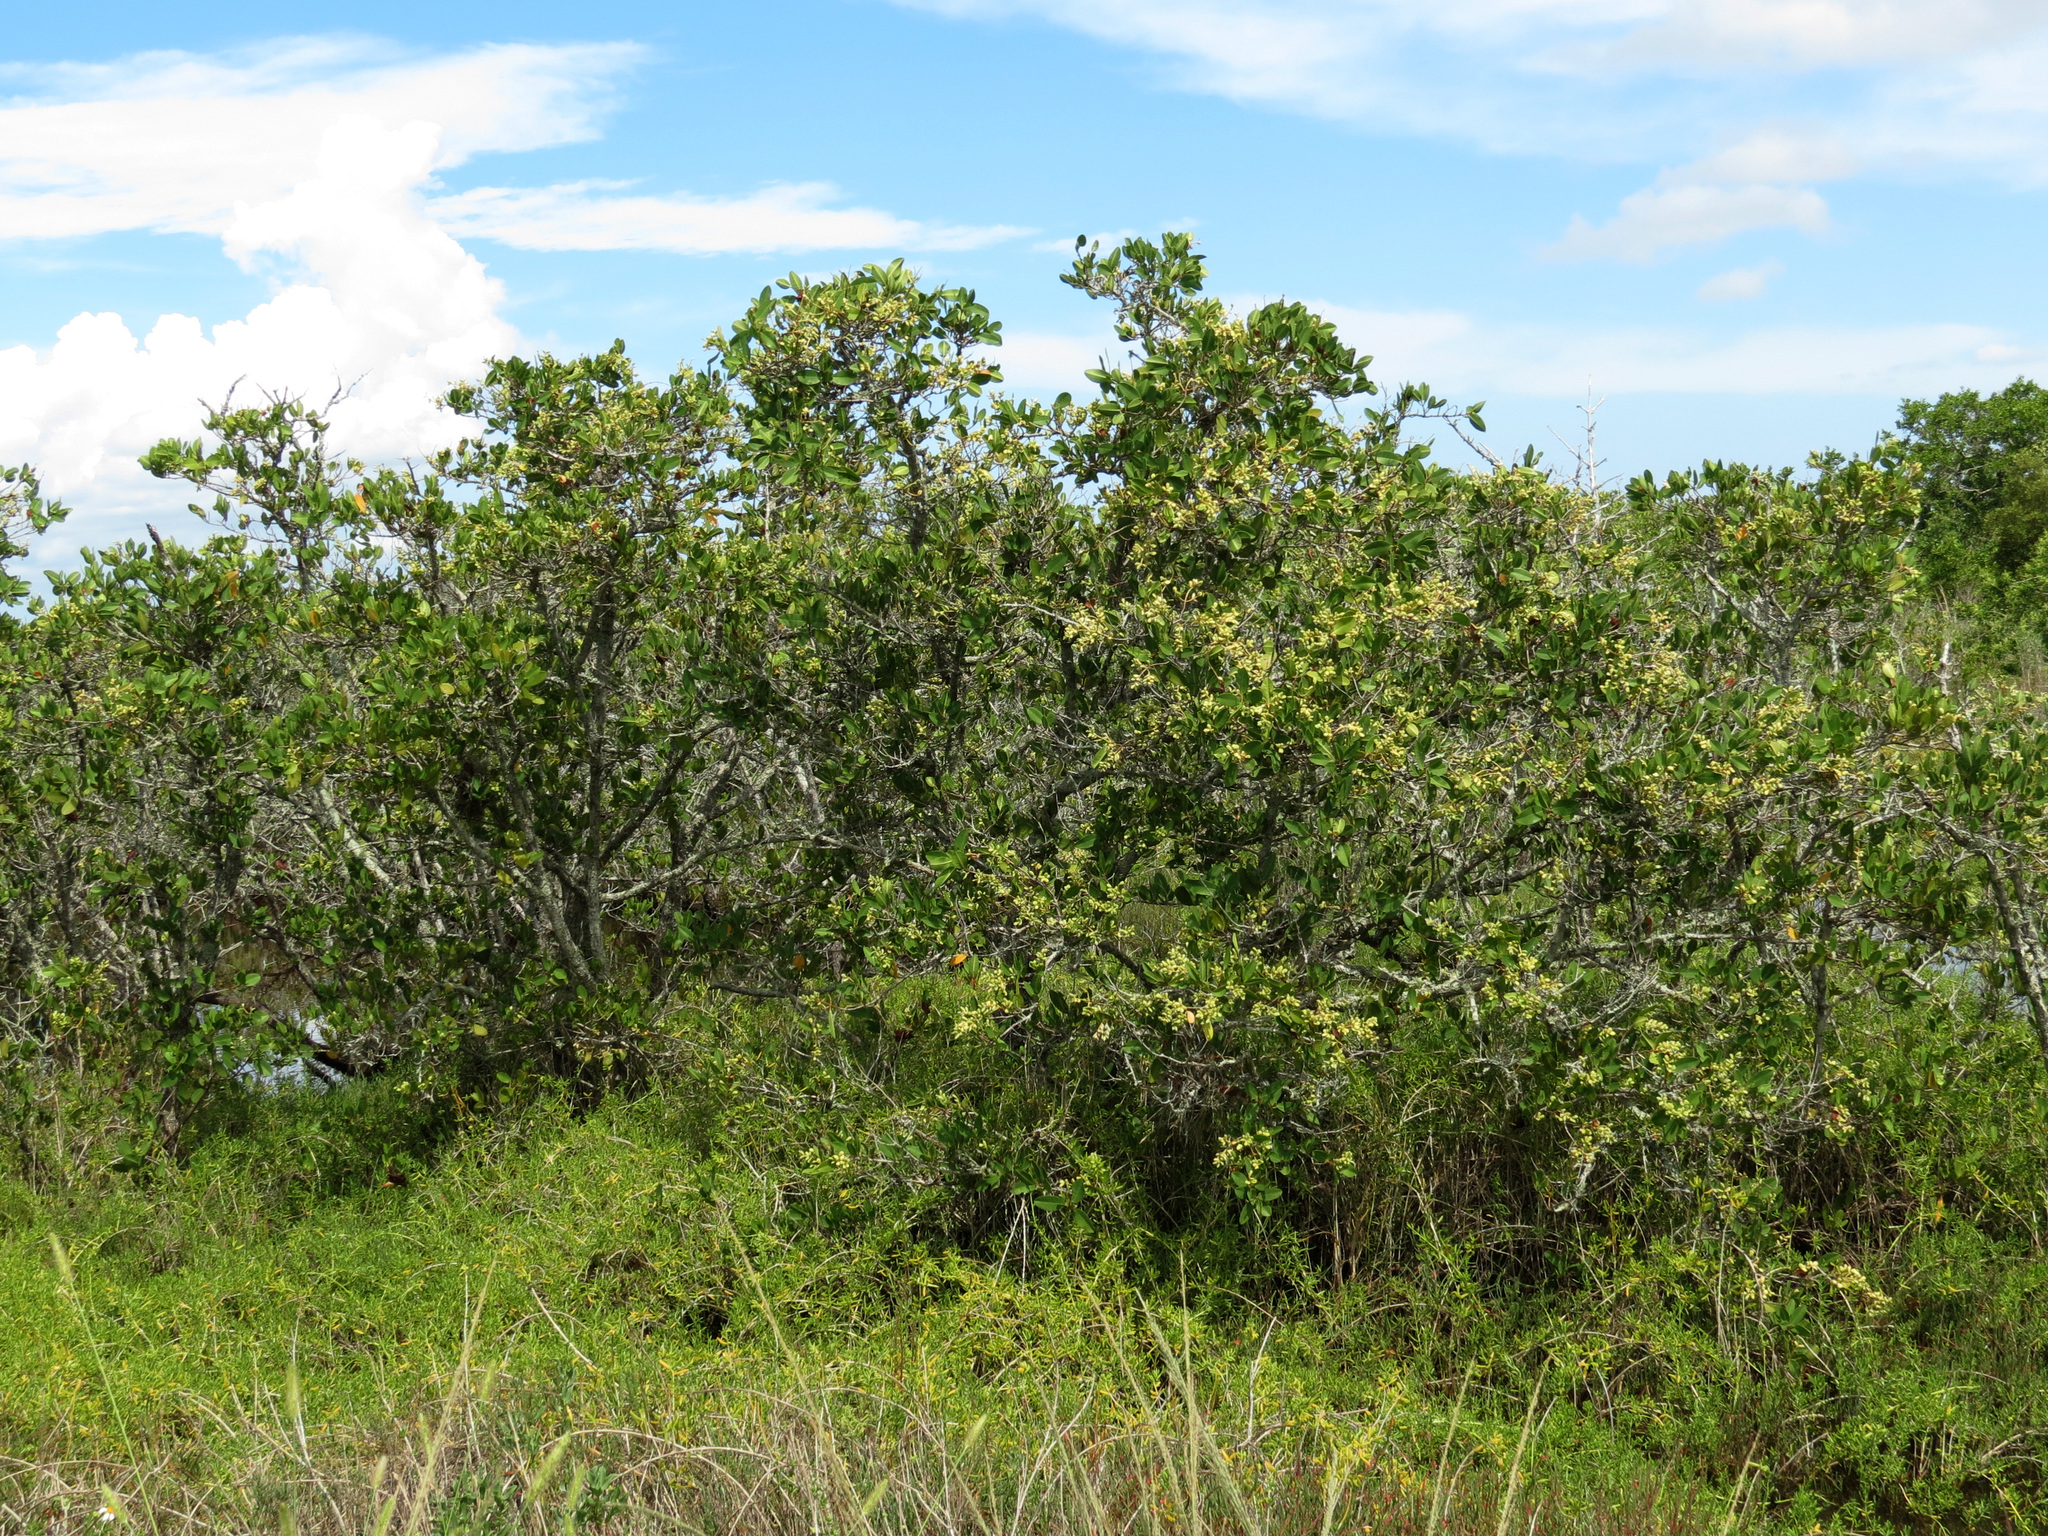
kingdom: Plantae
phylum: Tracheophyta
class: Magnoliopsida
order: Myrtales
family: Combretaceae
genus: Laguncularia
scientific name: Laguncularia racemosa
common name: White mangrove
